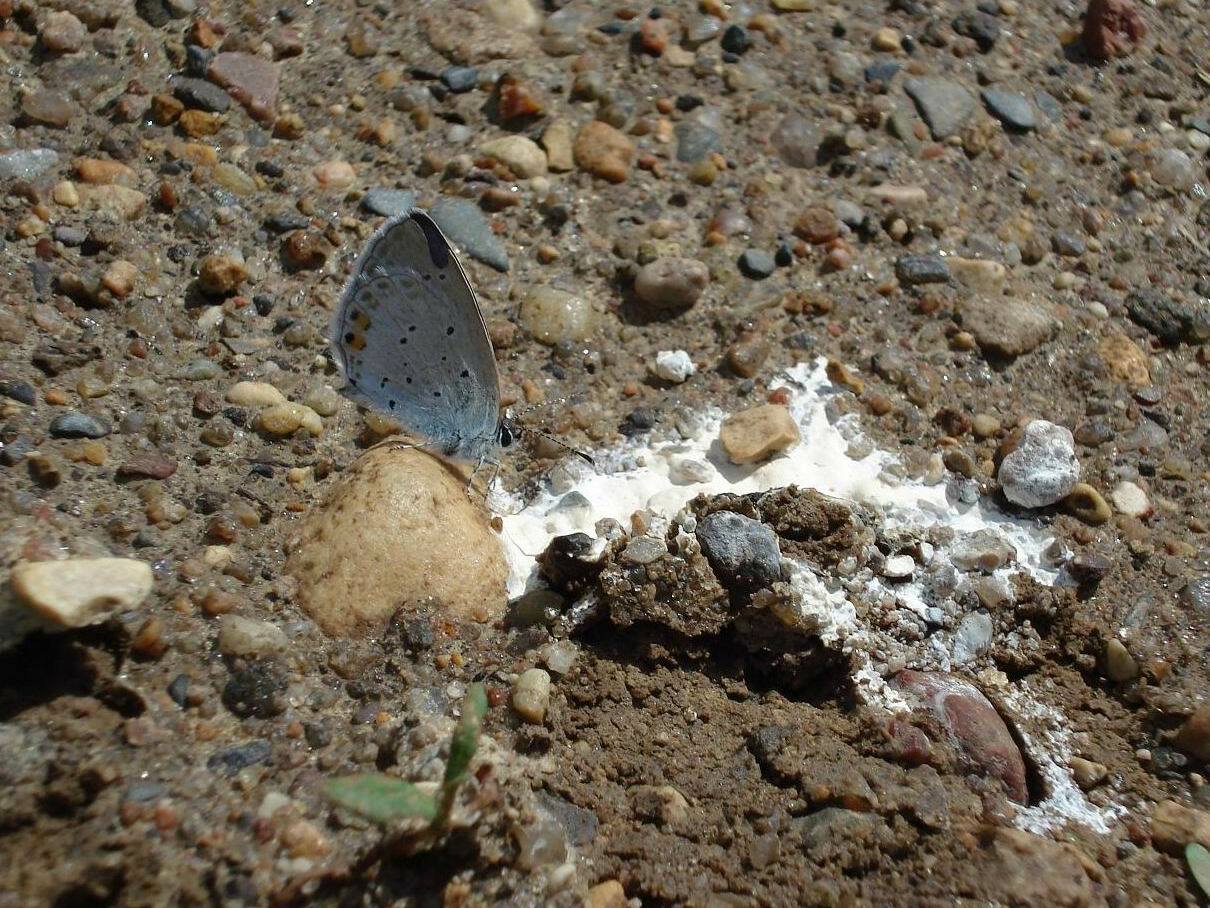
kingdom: Animalia
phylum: Arthropoda
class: Insecta
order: Lepidoptera
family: Lycaenidae
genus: Elkalyce
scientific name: Elkalyce argiades
